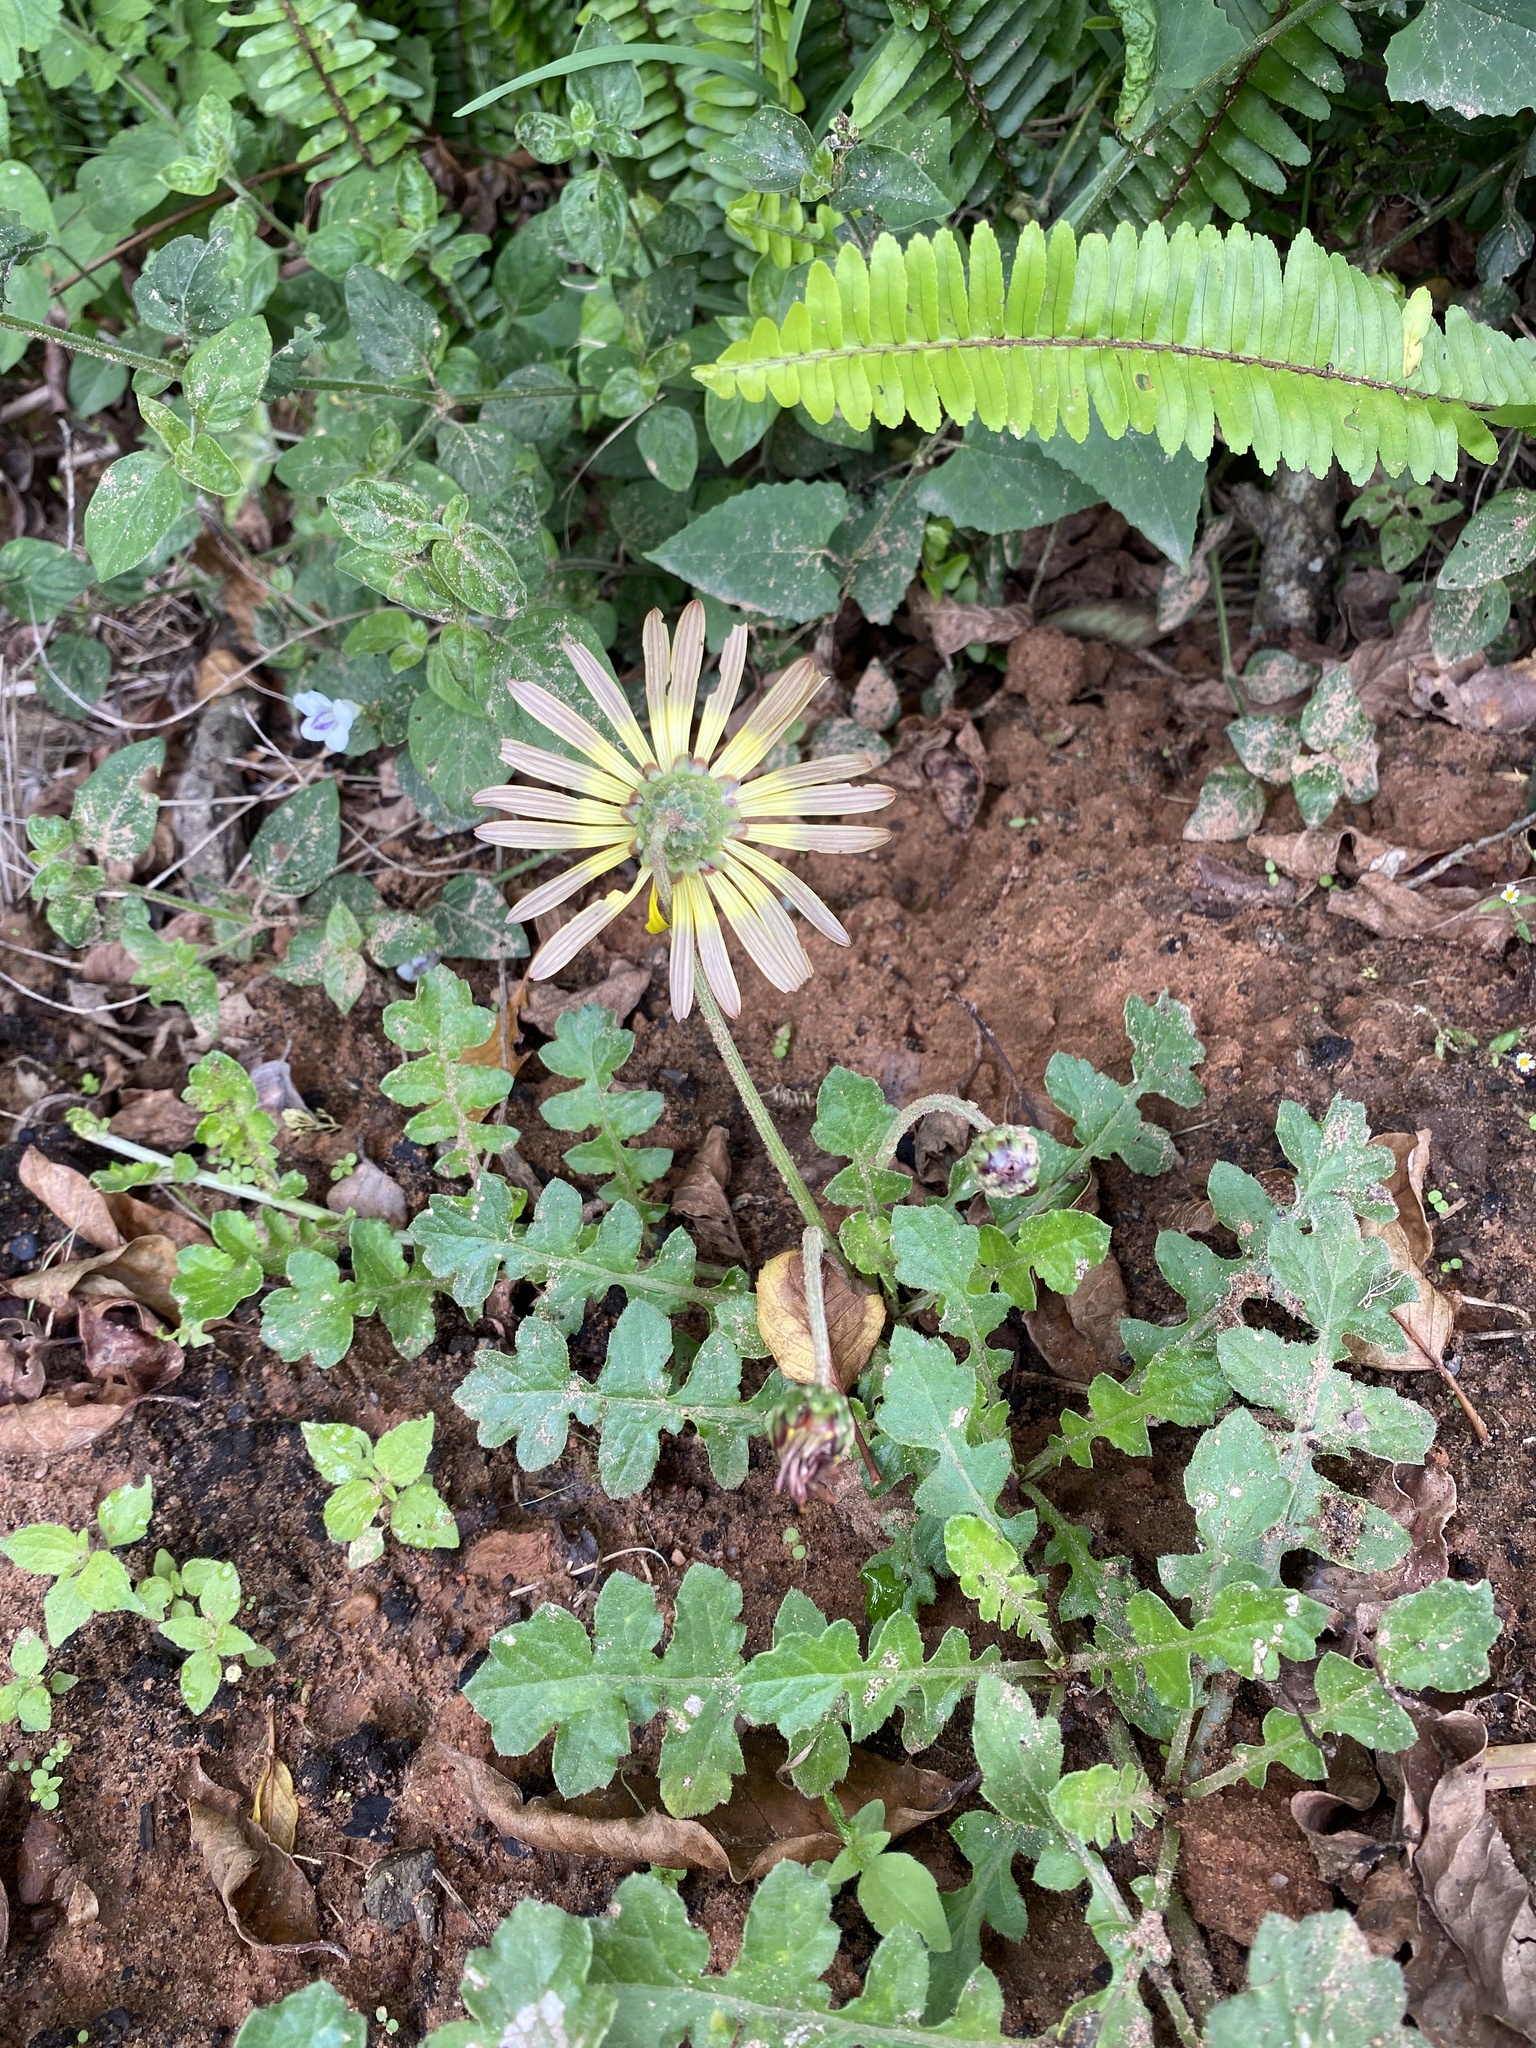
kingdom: Plantae
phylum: Tracheophyta
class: Magnoliopsida
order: Asterales
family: Asteraceae
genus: Arctotheca
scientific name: Arctotheca prostrata
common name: Capeweed
